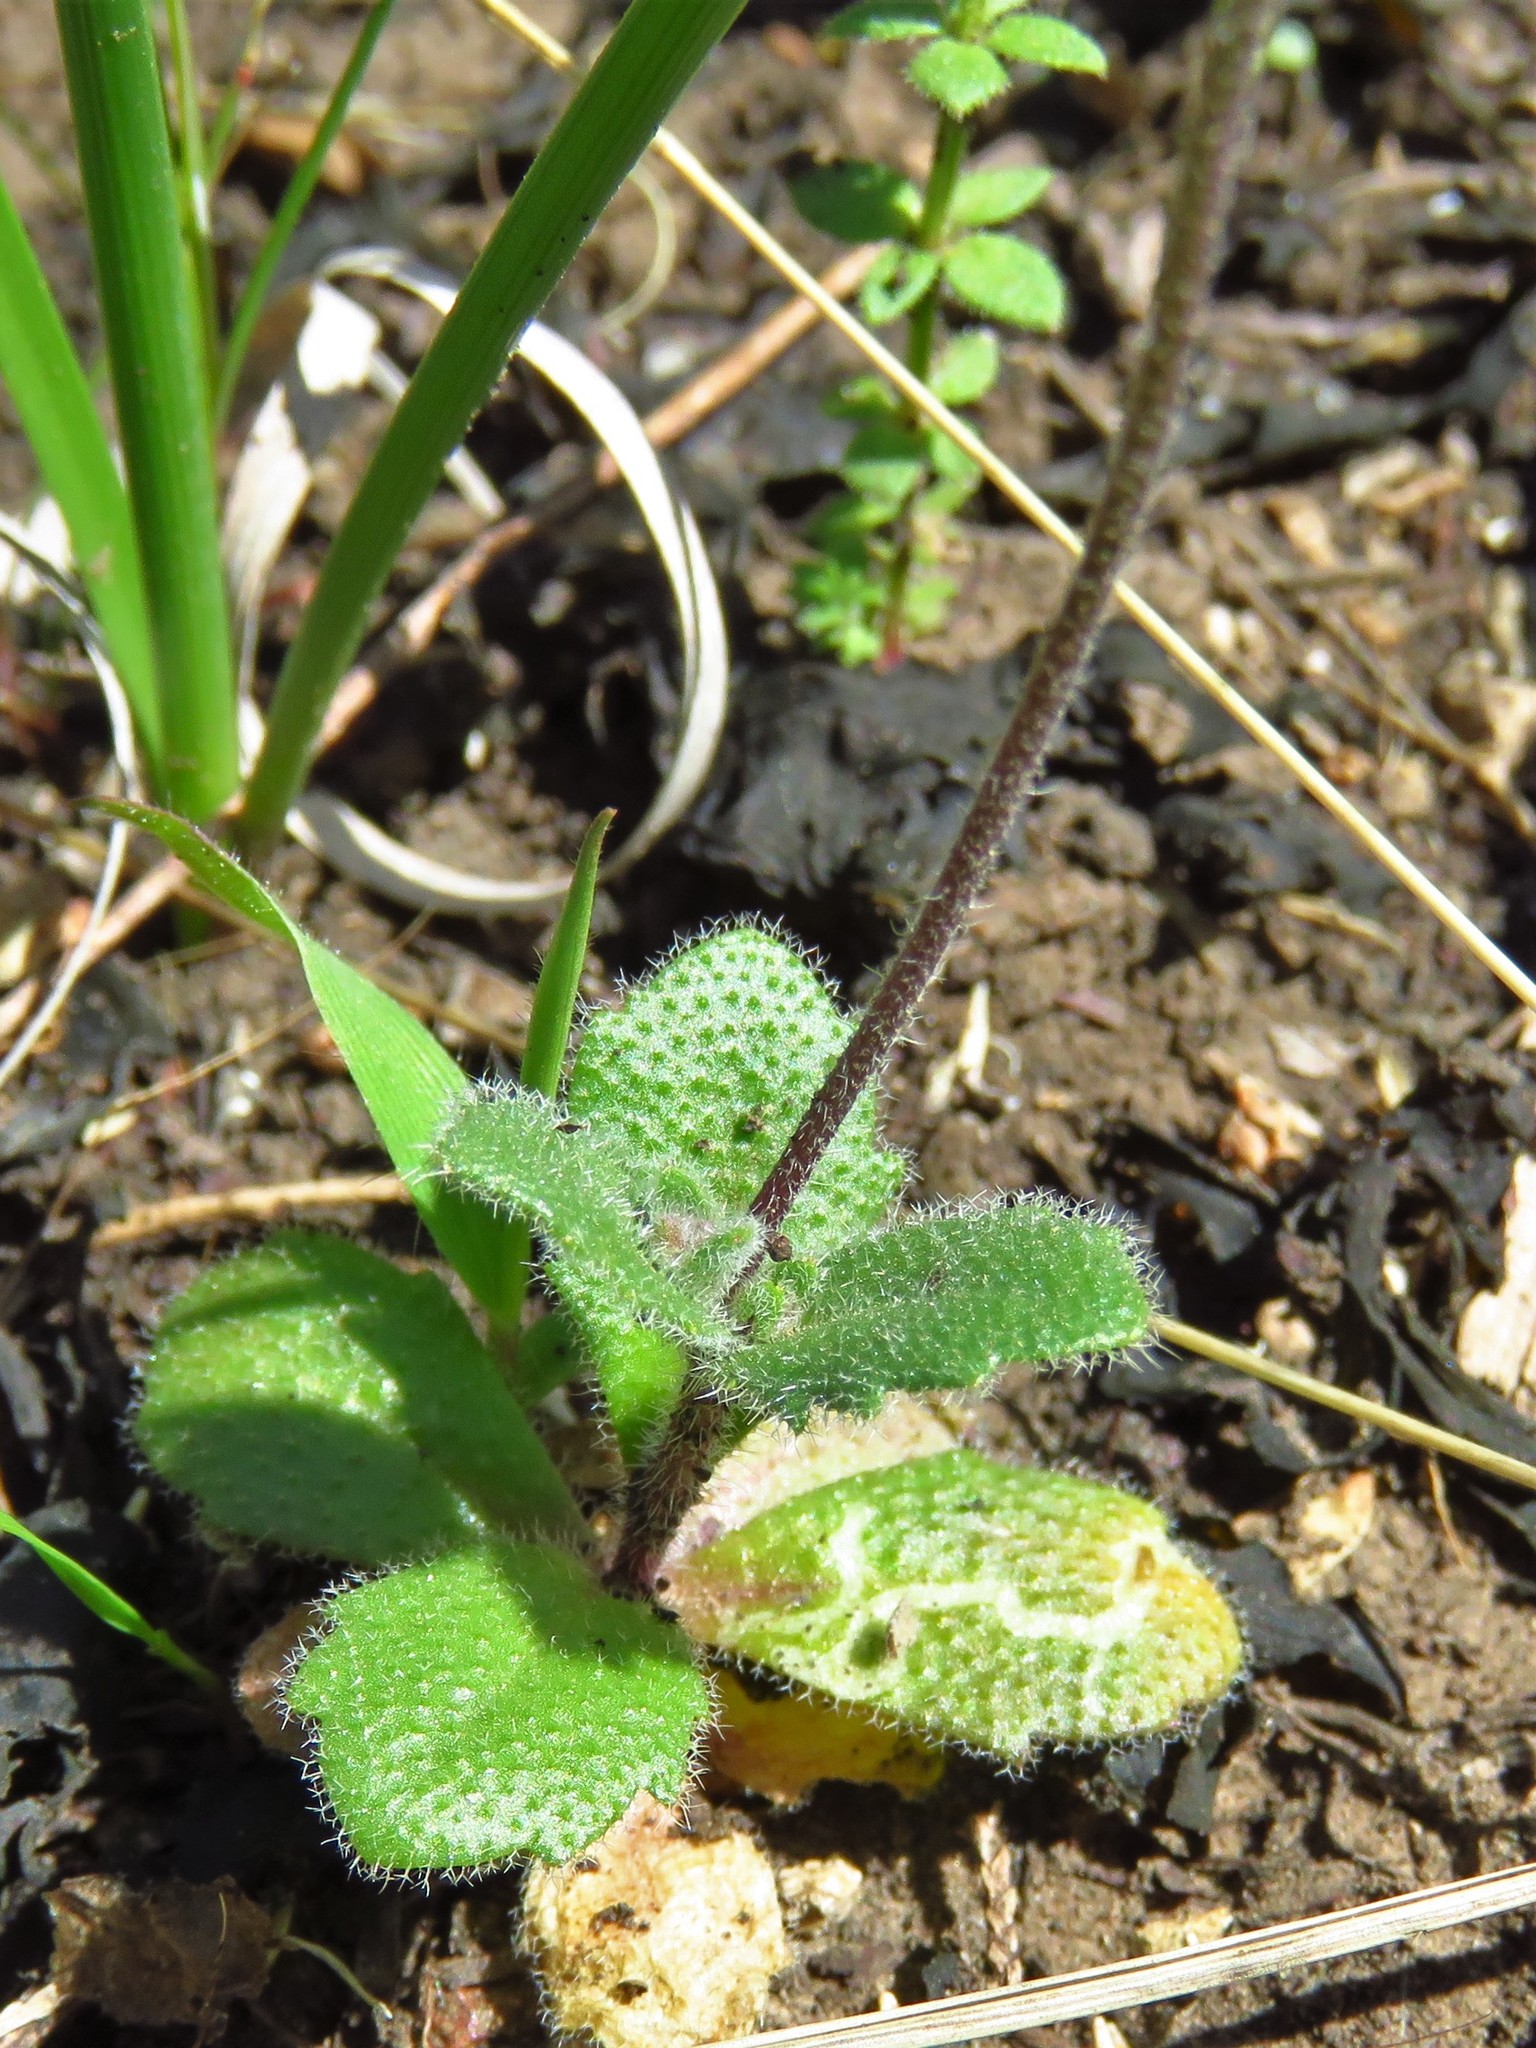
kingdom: Plantae
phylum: Tracheophyta
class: Magnoliopsida
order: Brassicales
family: Brassicaceae
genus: Tomostima
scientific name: Tomostima cuneifolia
